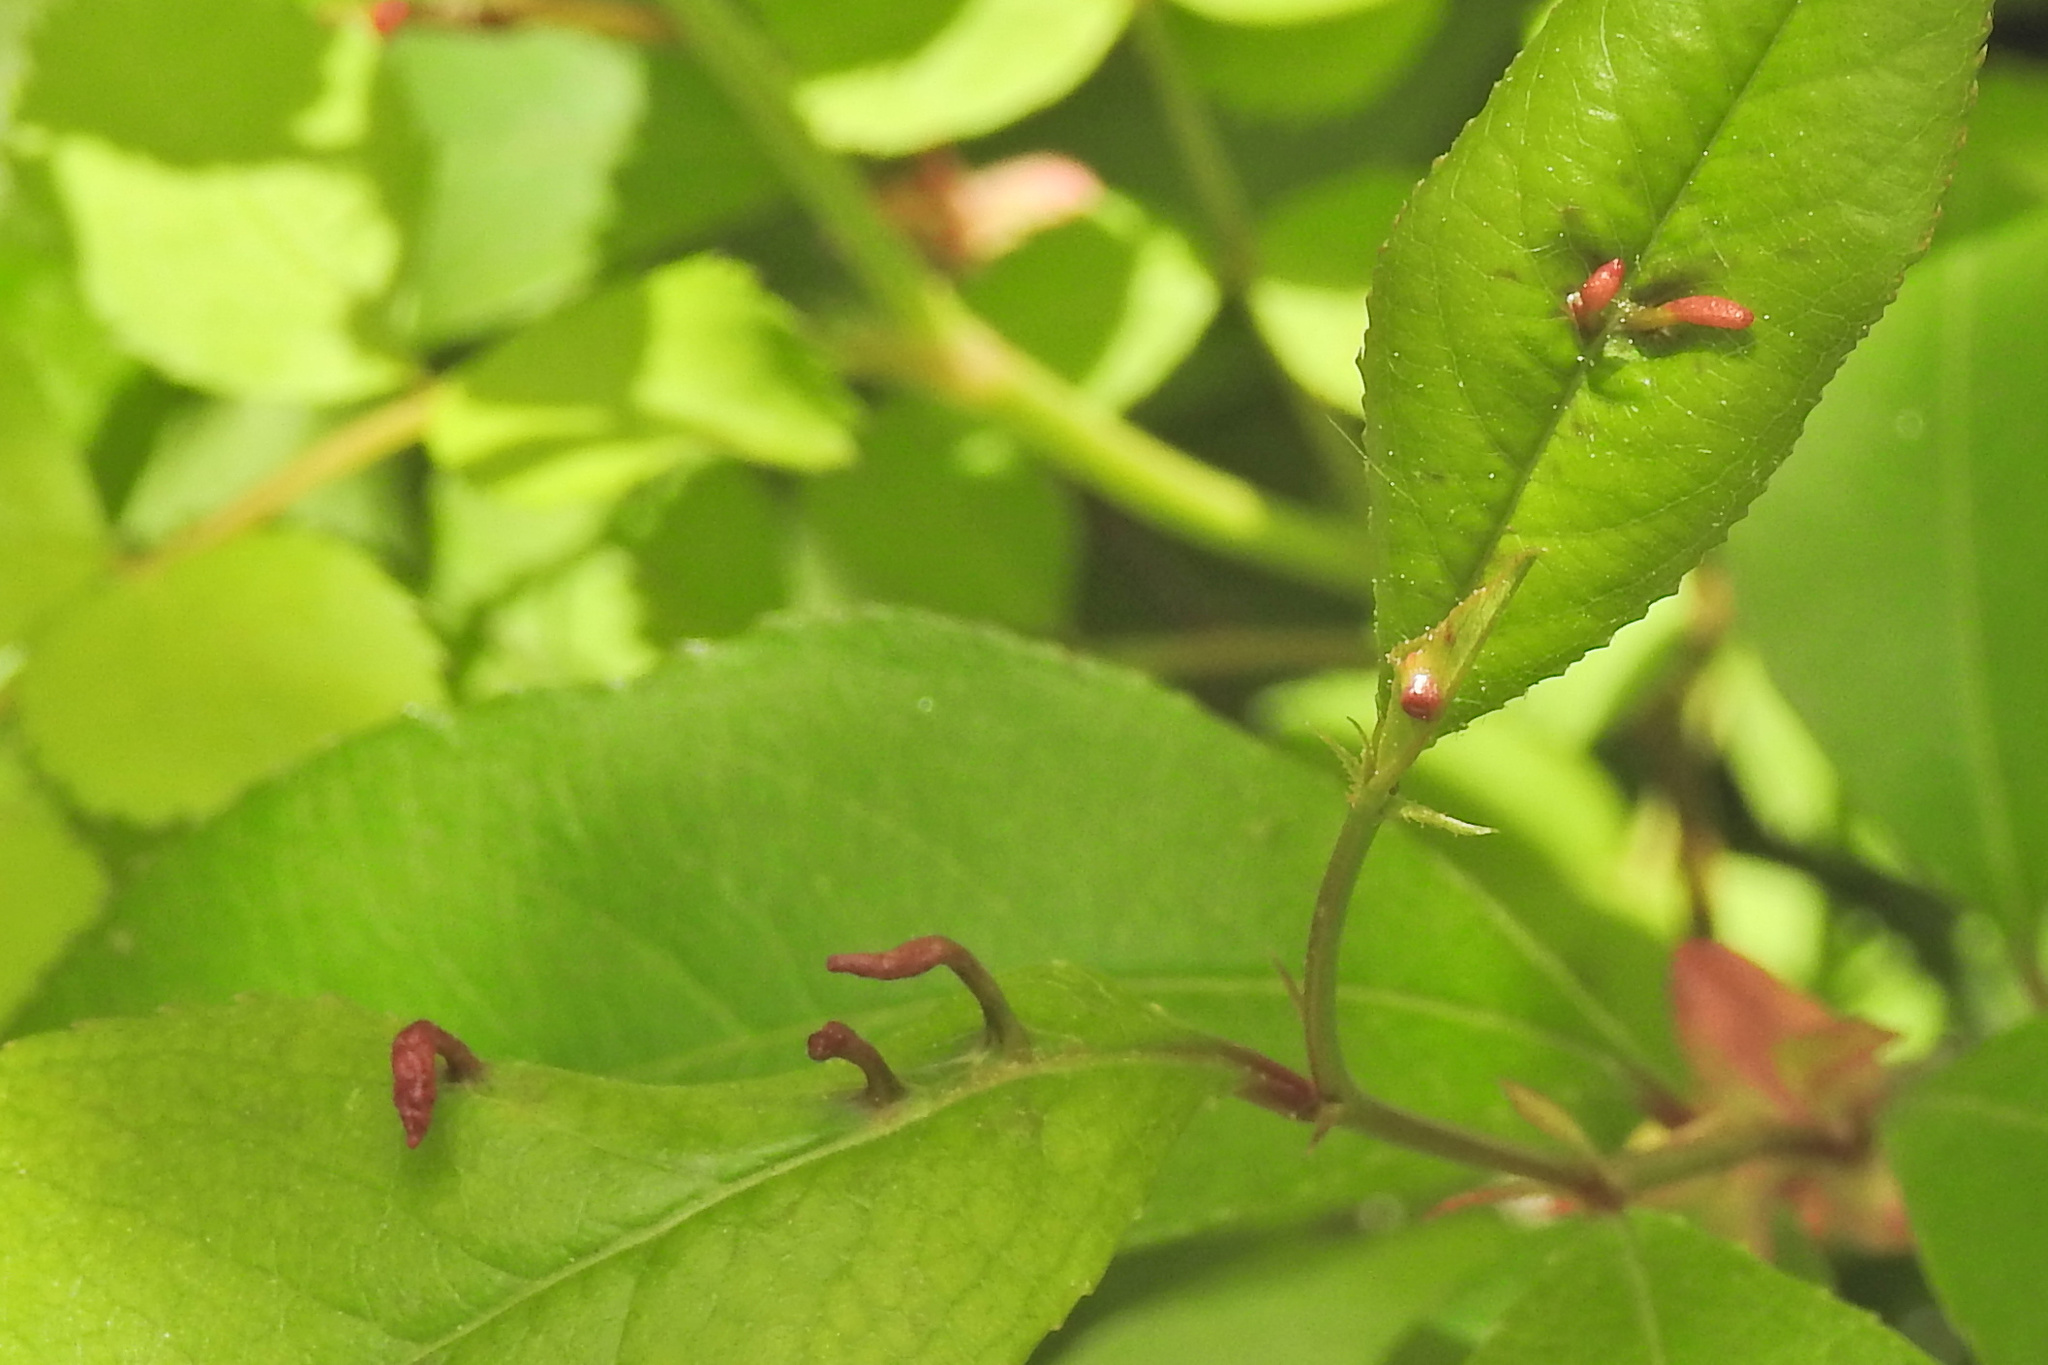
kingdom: Animalia
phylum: Arthropoda
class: Arachnida
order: Trombidiformes
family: Eriophyidae
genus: Eriophyes
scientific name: Eriophyes
